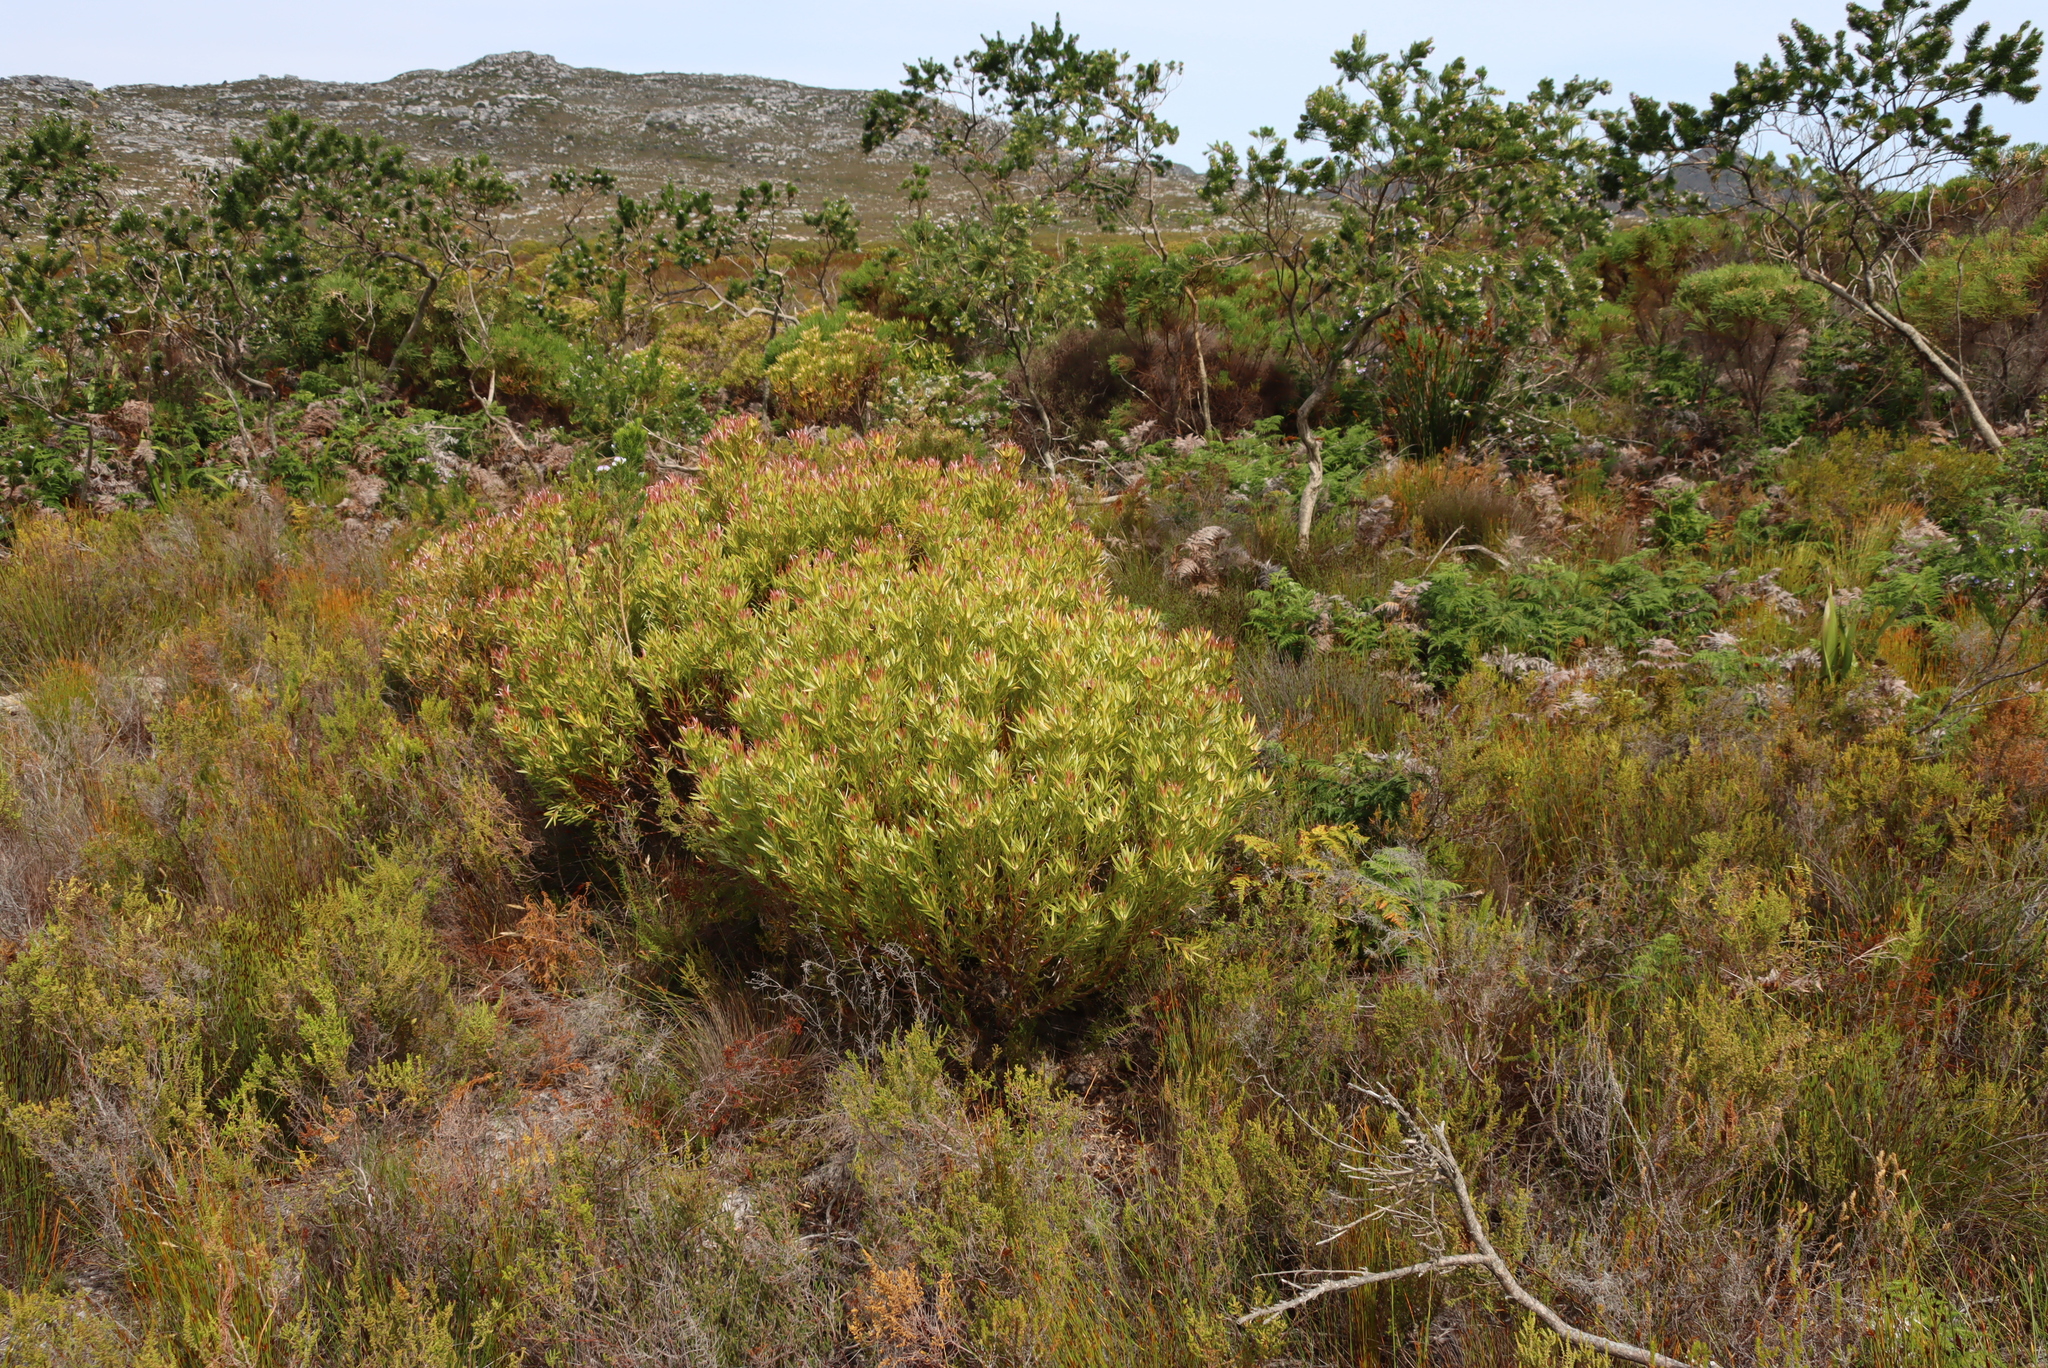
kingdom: Plantae
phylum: Tracheophyta
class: Magnoliopsida
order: Proteales
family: Proteaceae
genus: Leucadendron
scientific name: Leucadendron xanthoconus
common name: Sickle-leaf conebush
